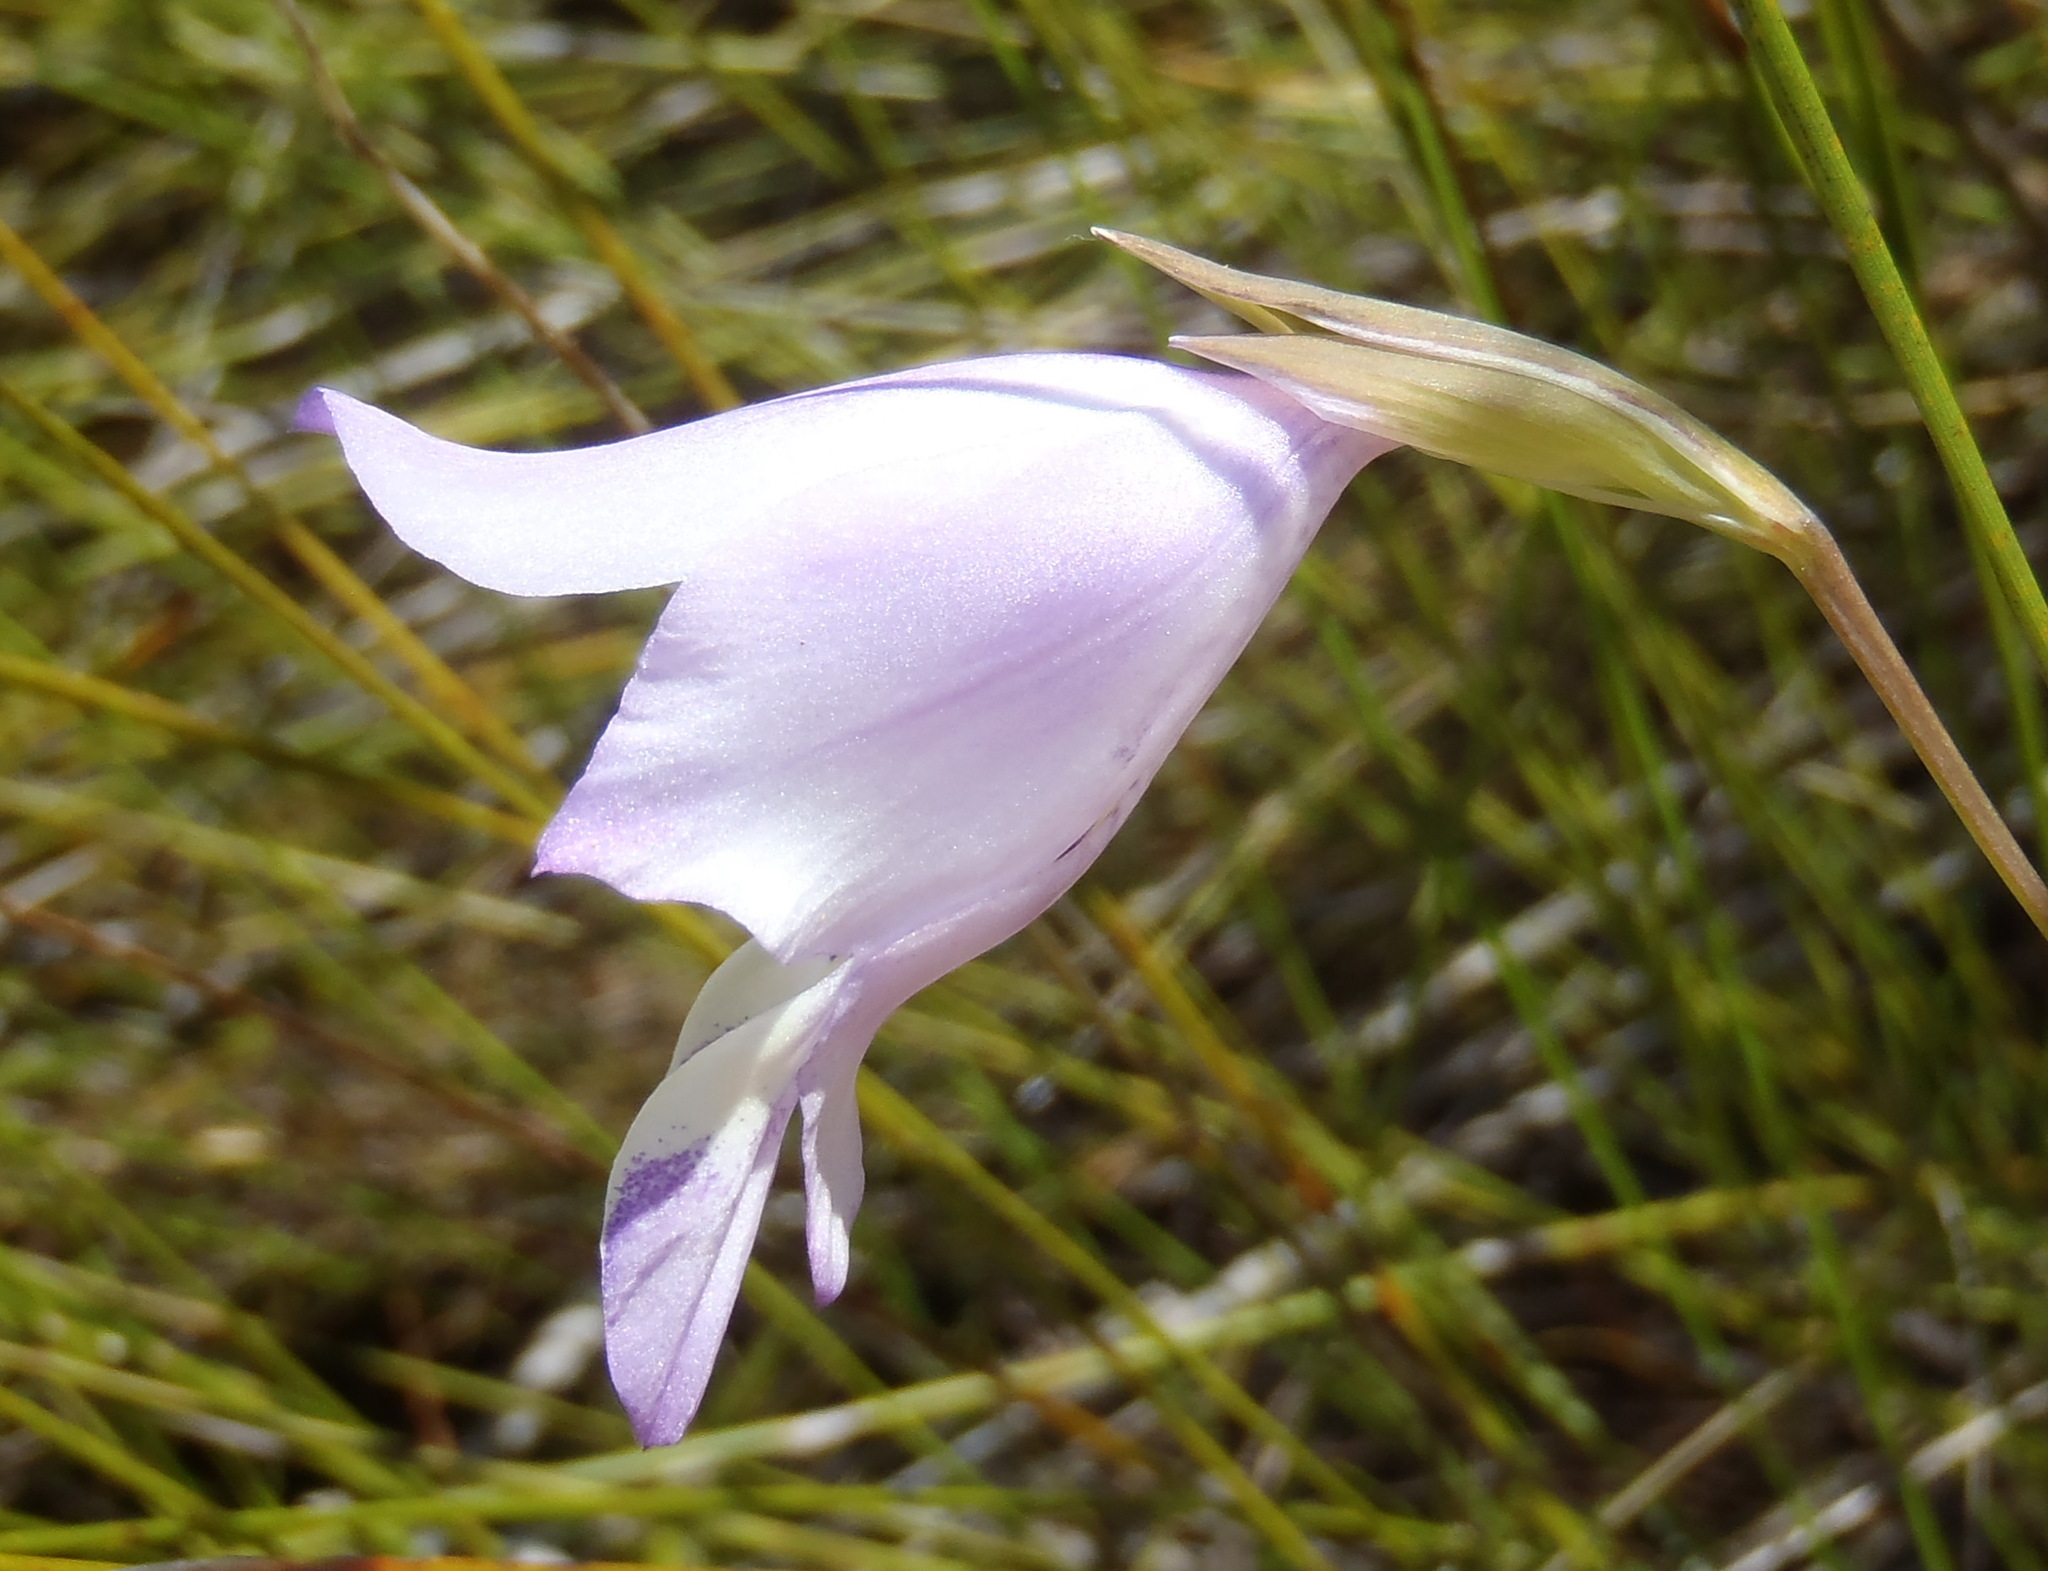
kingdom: Plantae
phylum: Tracheophyta
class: Liliopsida
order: Asparagales
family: Iridaceae
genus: Gladiolus
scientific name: Gladiolus rogersii
